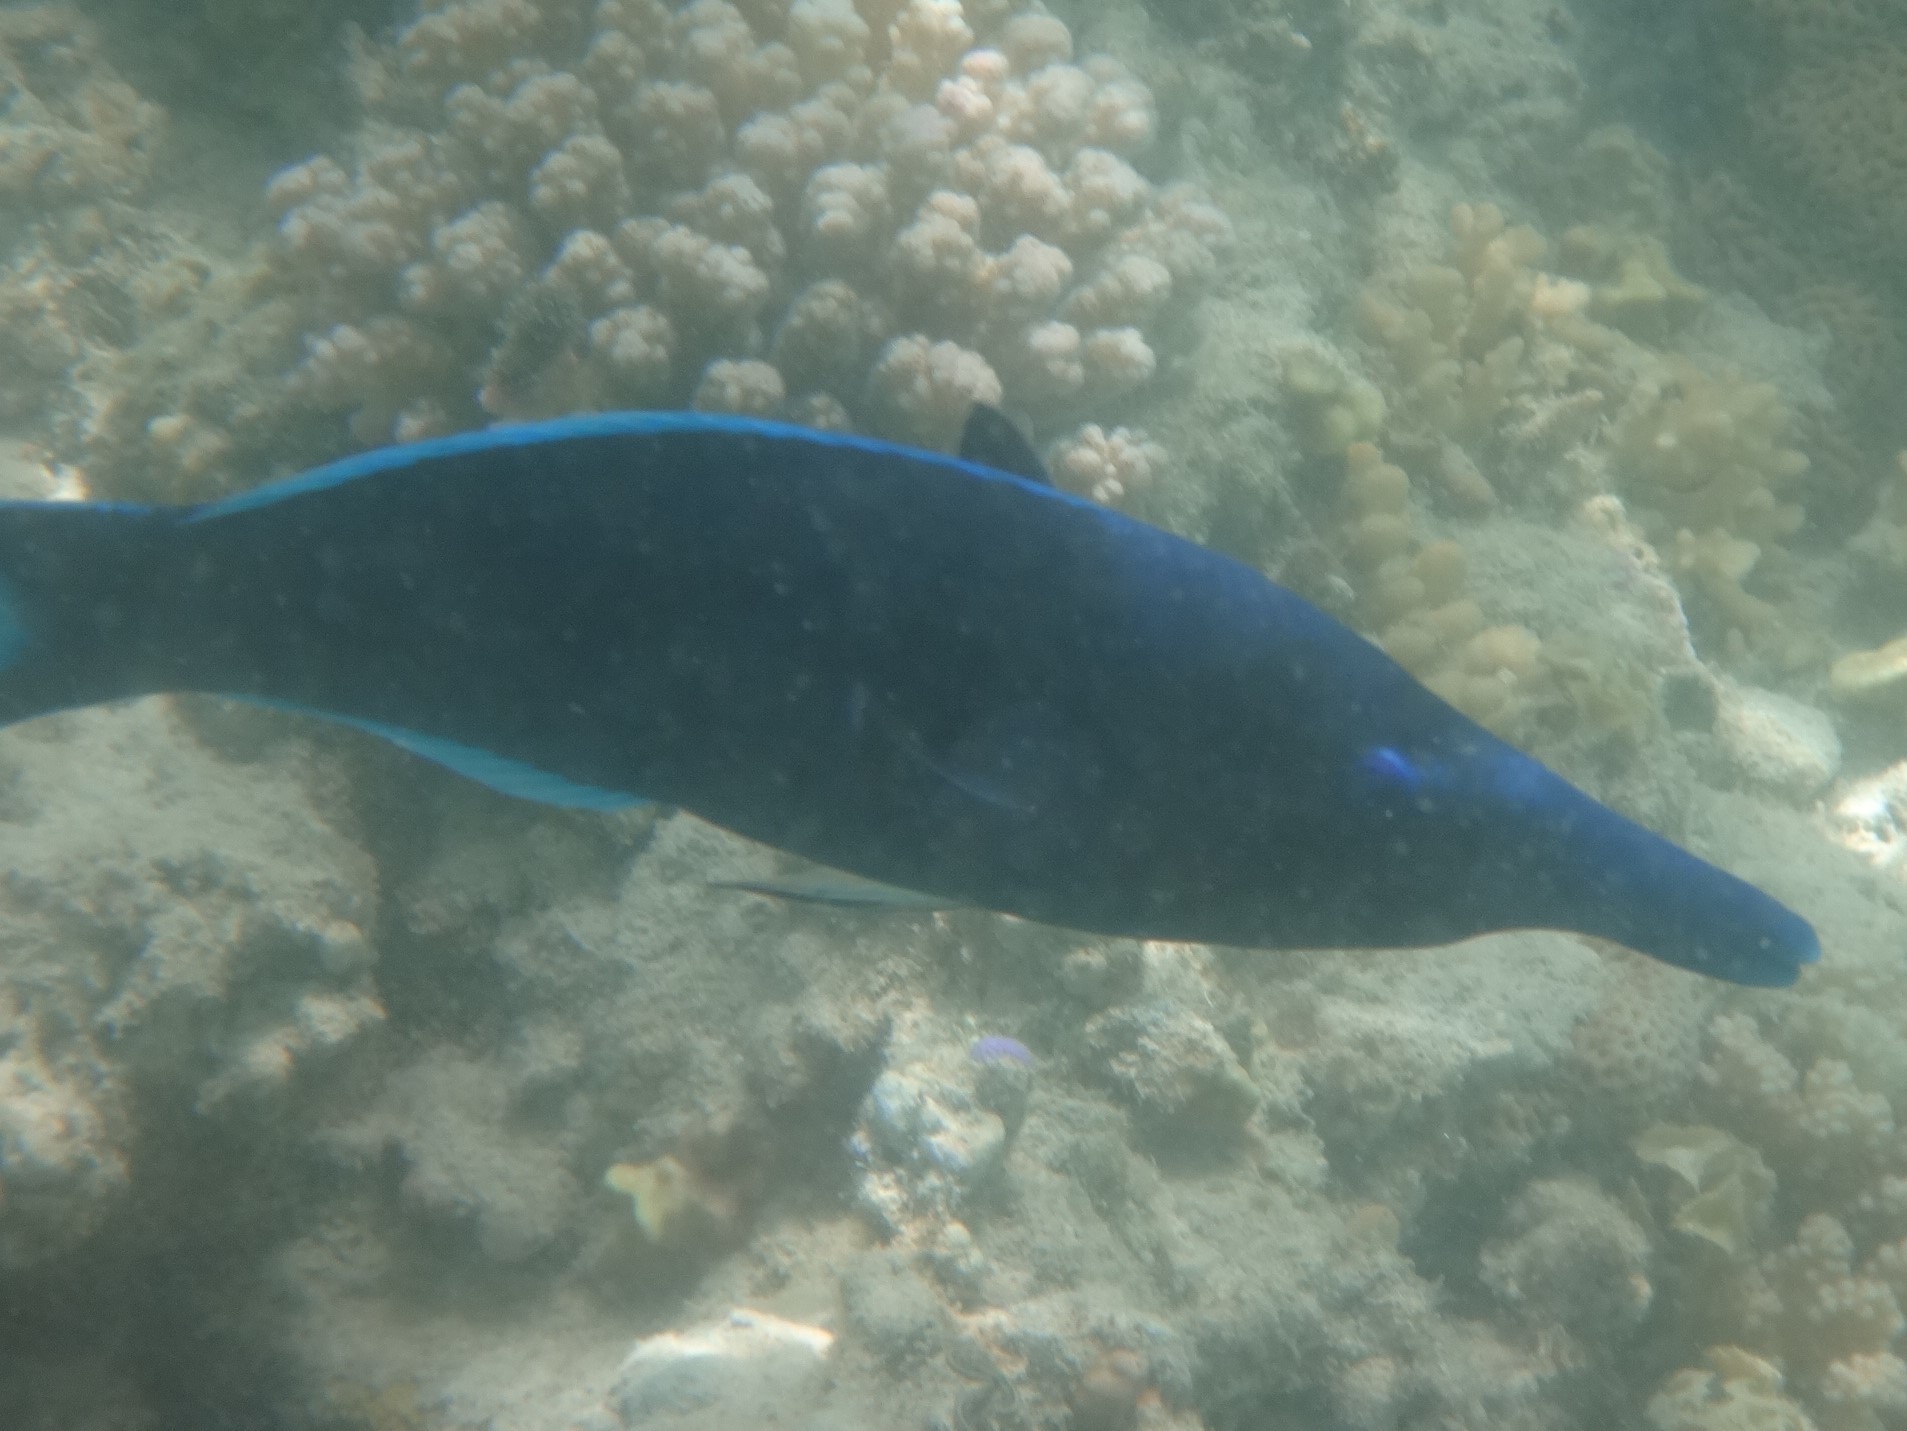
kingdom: Animalia
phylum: Chordata
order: Perciformes
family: Labridae
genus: Gomphosus
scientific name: Gomphosus klunzingeri
